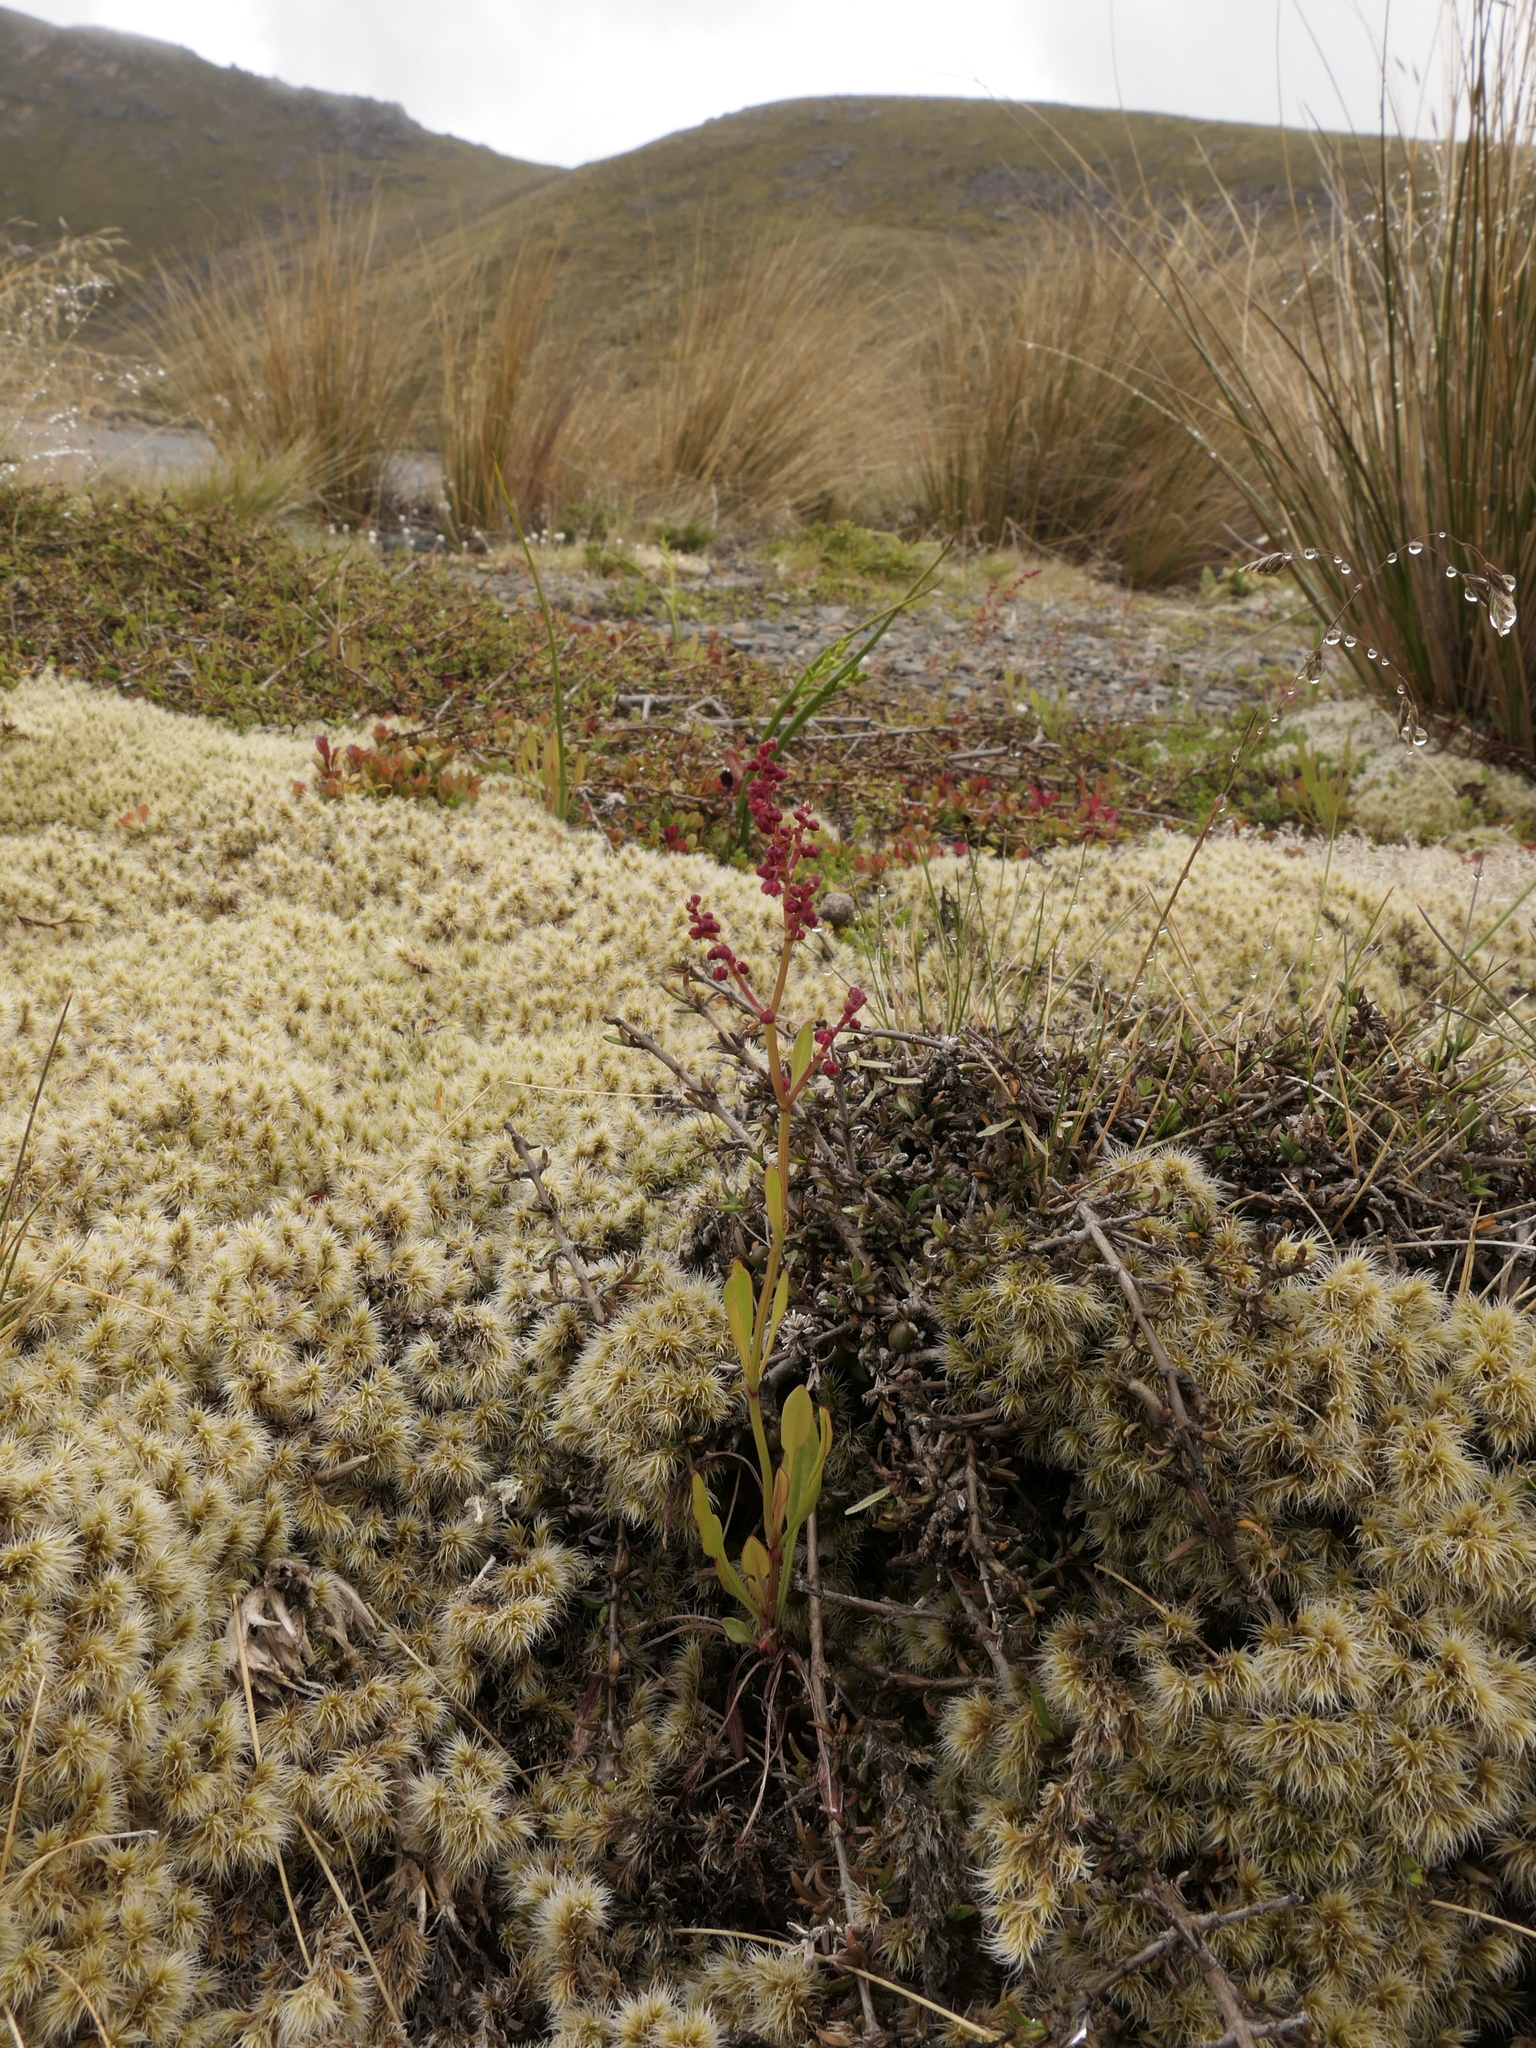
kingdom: Plantae
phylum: Tracheophyta
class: Magnoliopsida
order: Caryophyllales
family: Polygonaceae
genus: Rumex
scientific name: Rumex acetosella
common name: Common sheep sorrel
